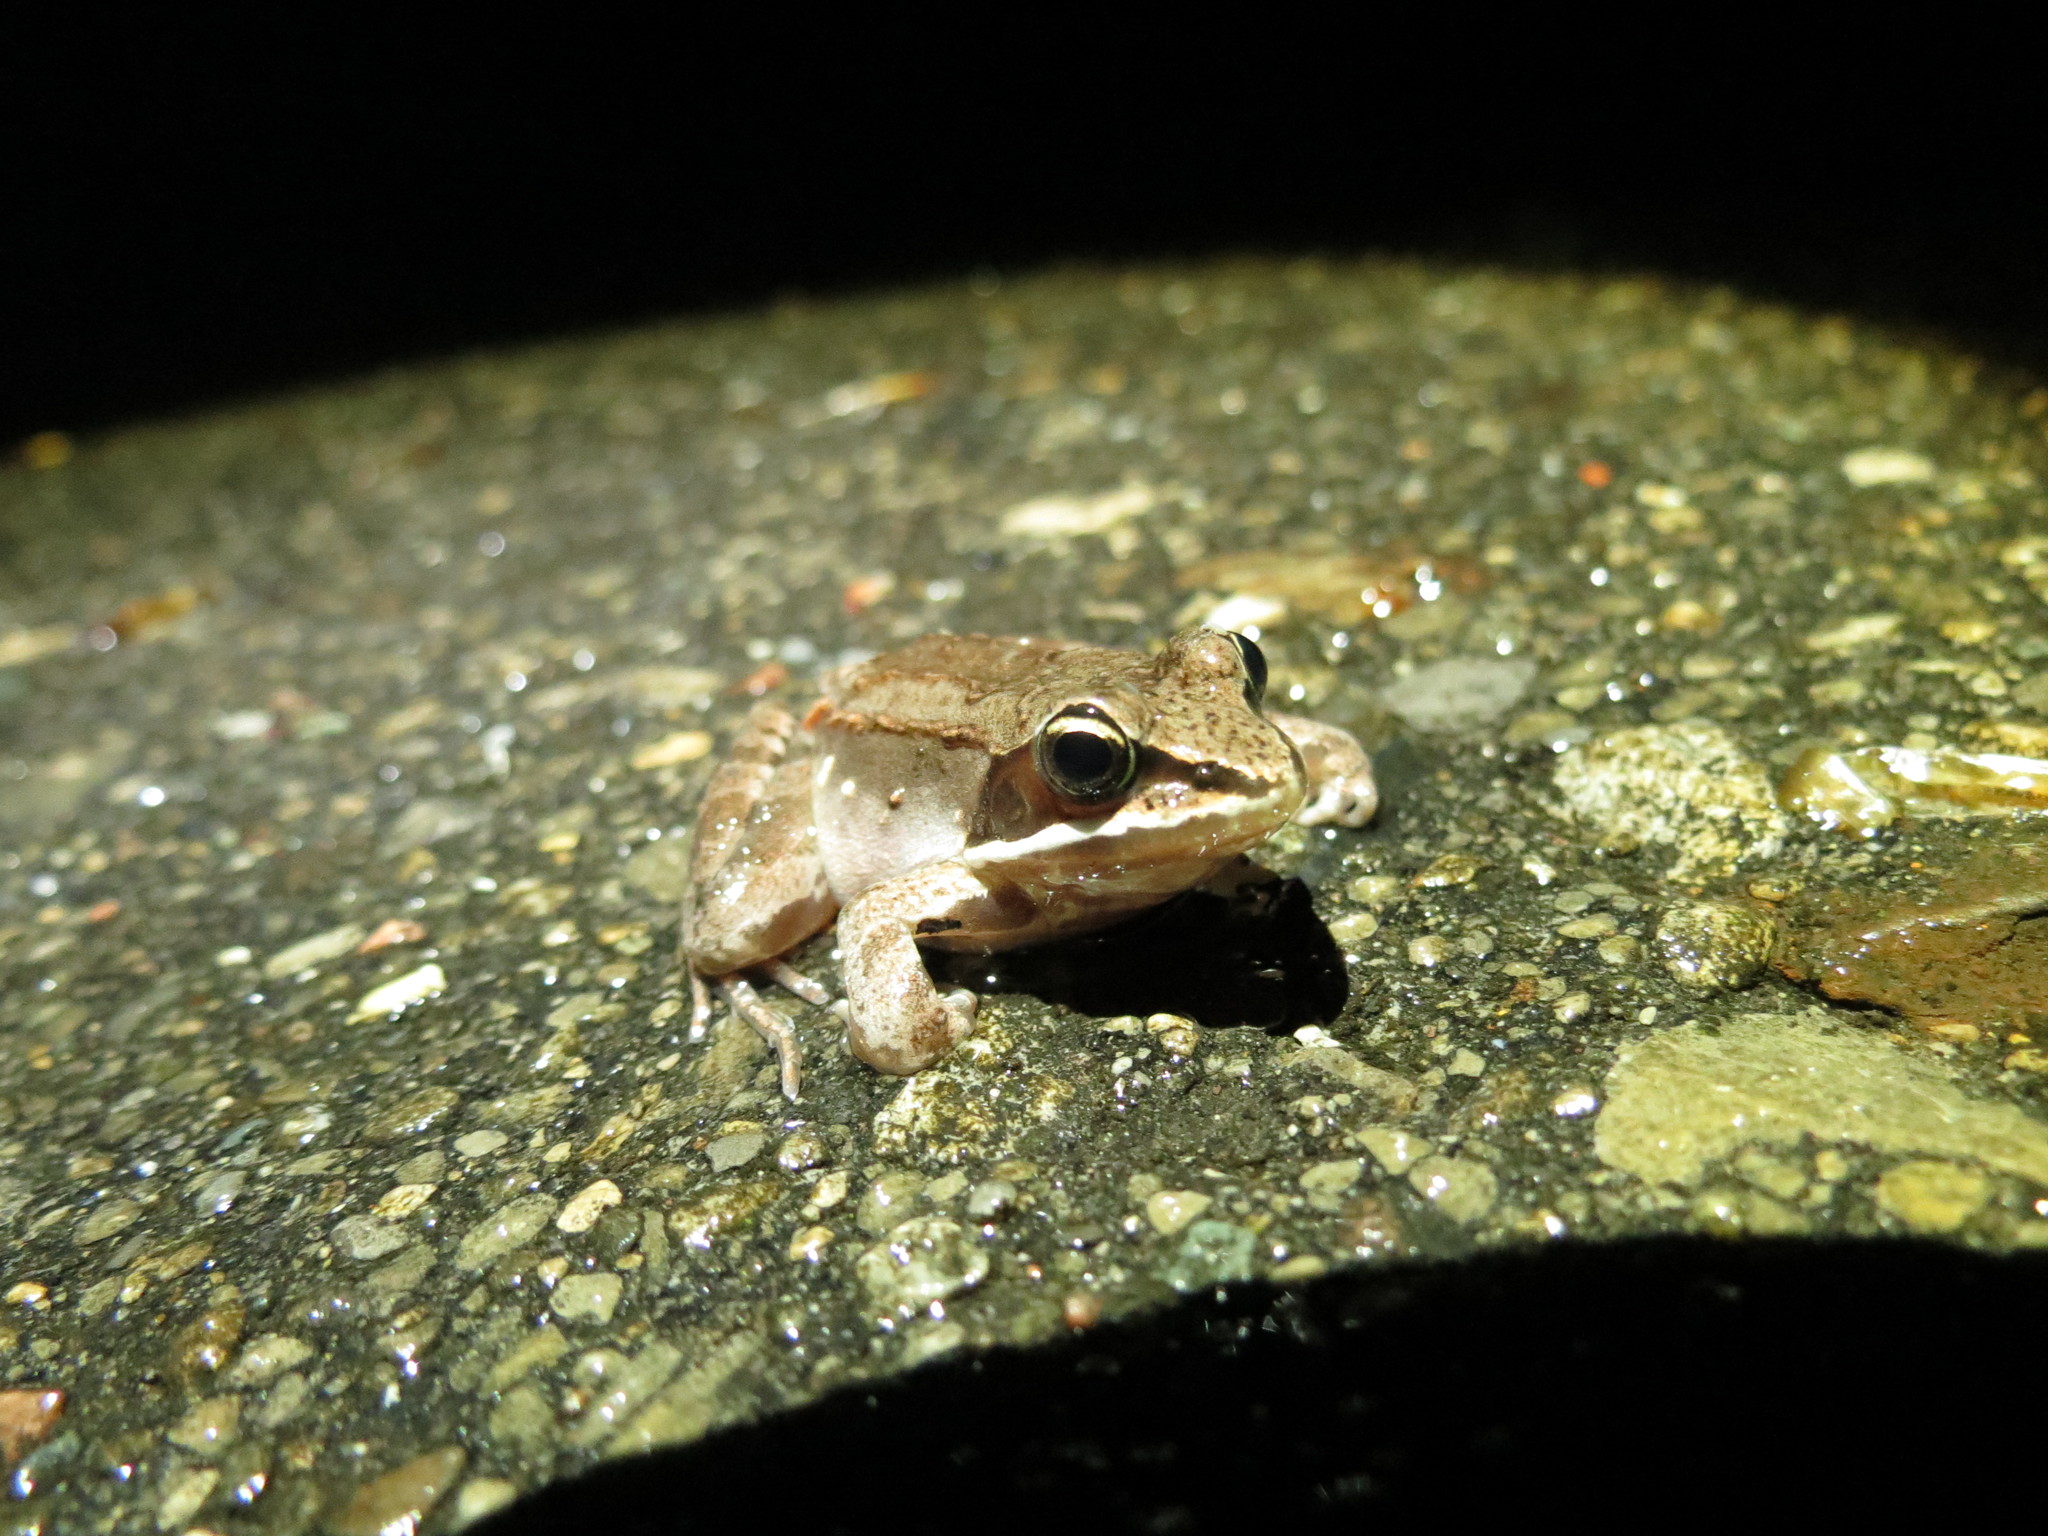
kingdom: Animalia
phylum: Chordata
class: Amphibia
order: Anura
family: Ranidae
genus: Lithobates
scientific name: Lithobates sylvaticus
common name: Wood frog
